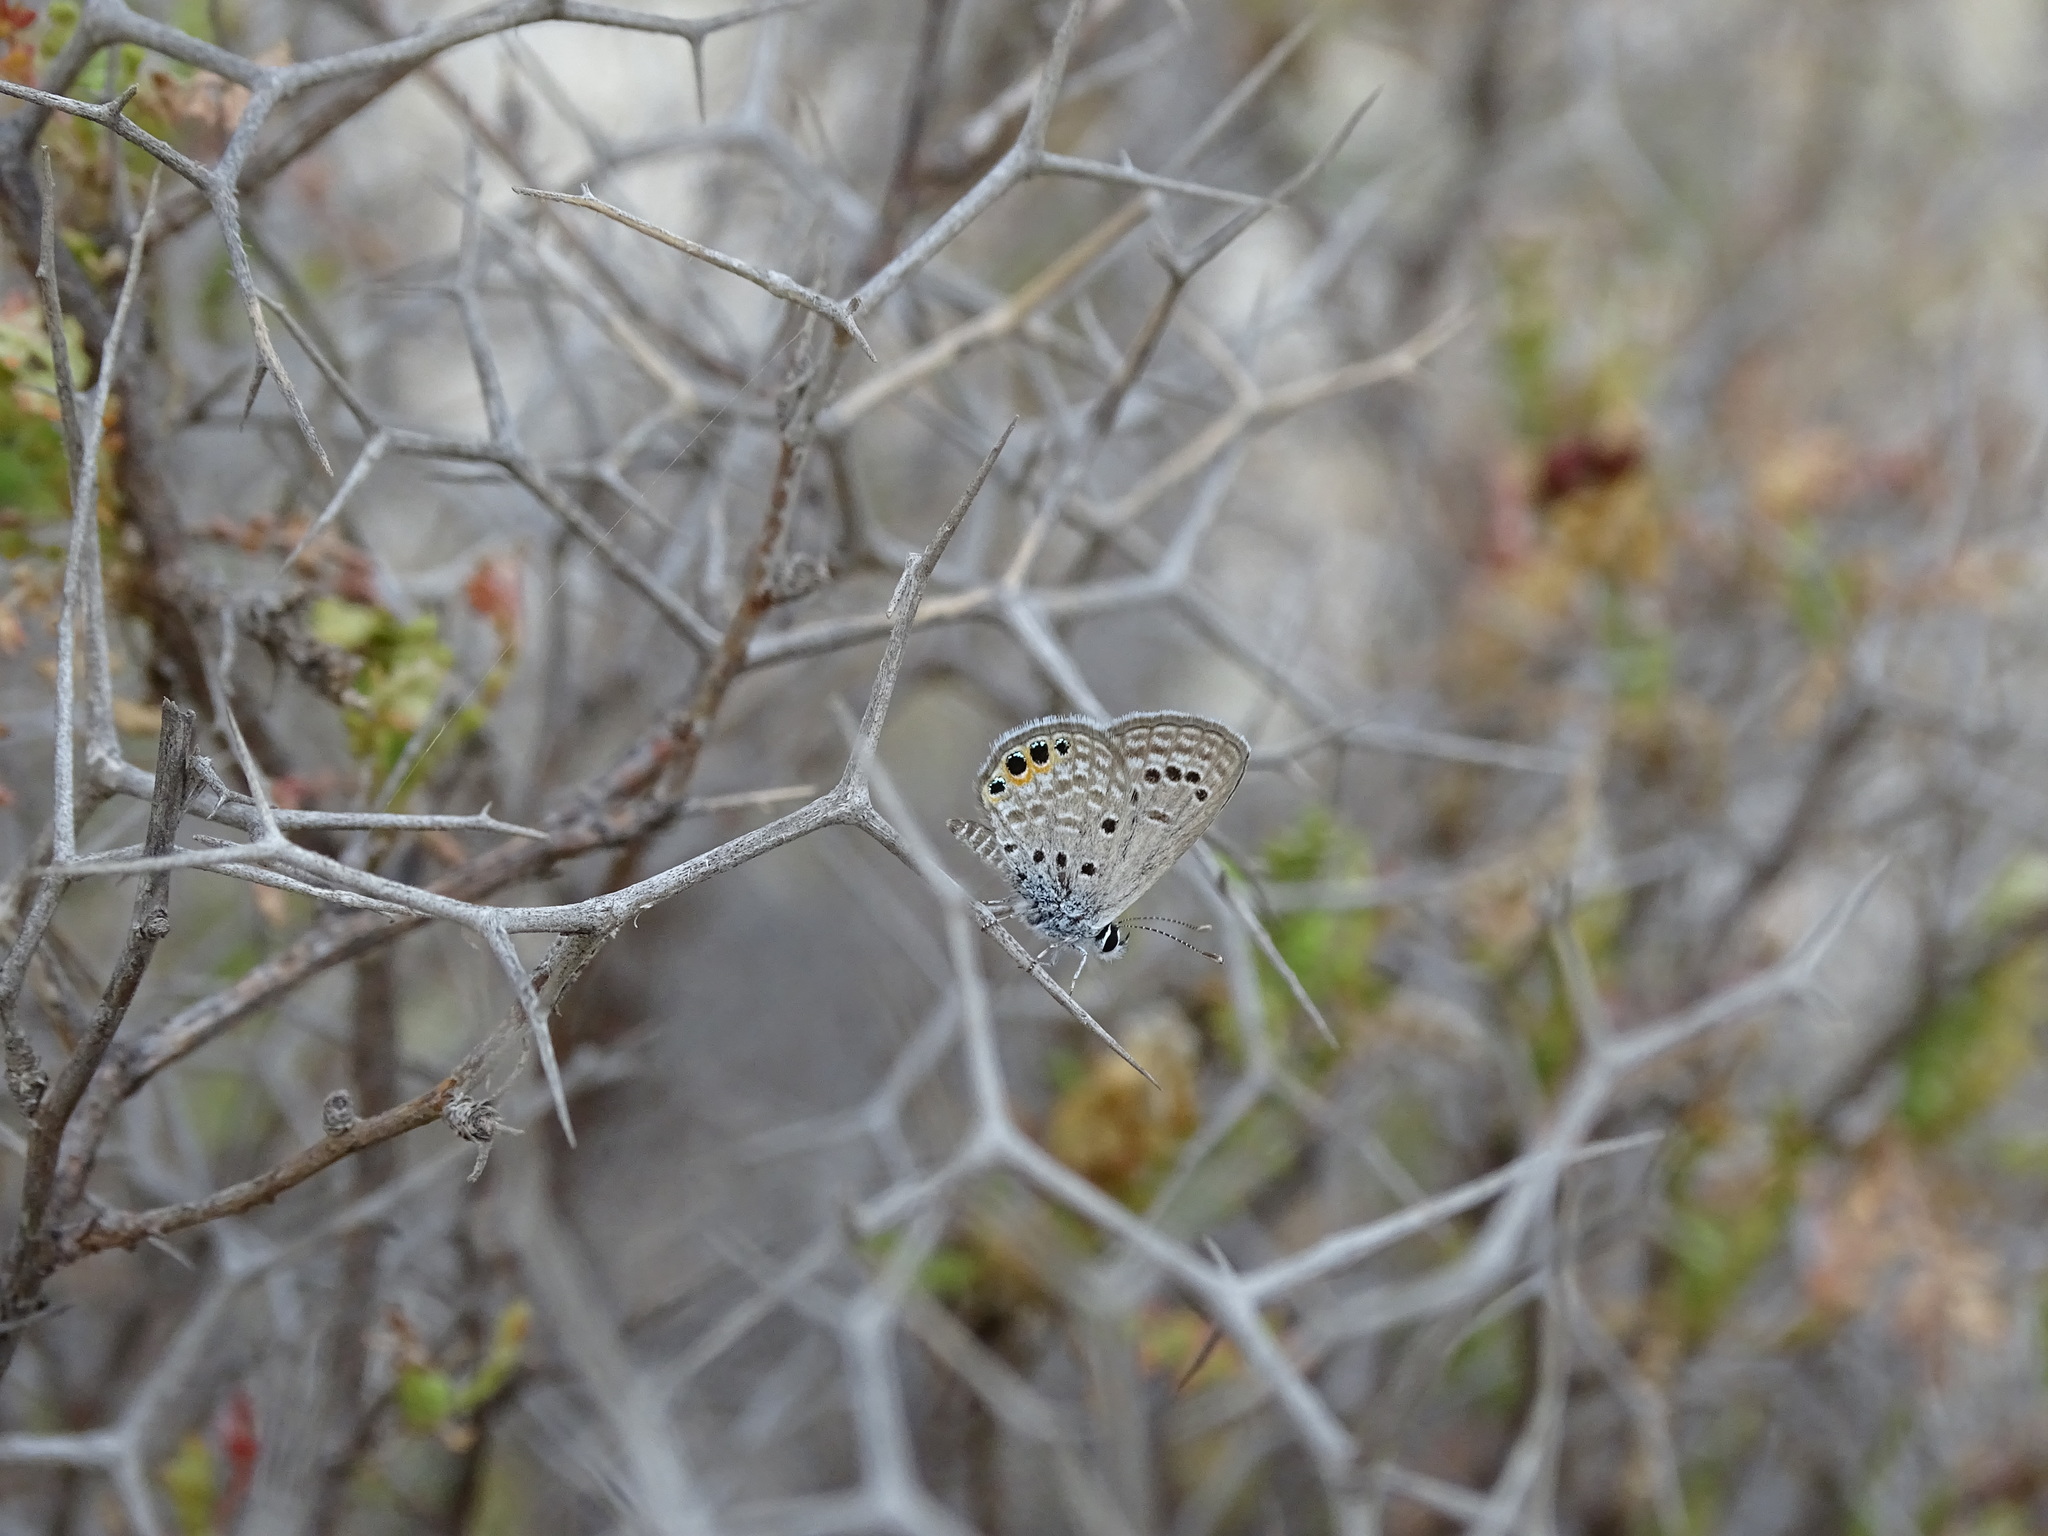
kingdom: Animalia
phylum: Arthropoda
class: Insecta
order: Lepidoptera
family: Lycaenidae
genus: Freyeria
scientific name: Freyeria trochylus
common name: Grass jewel
